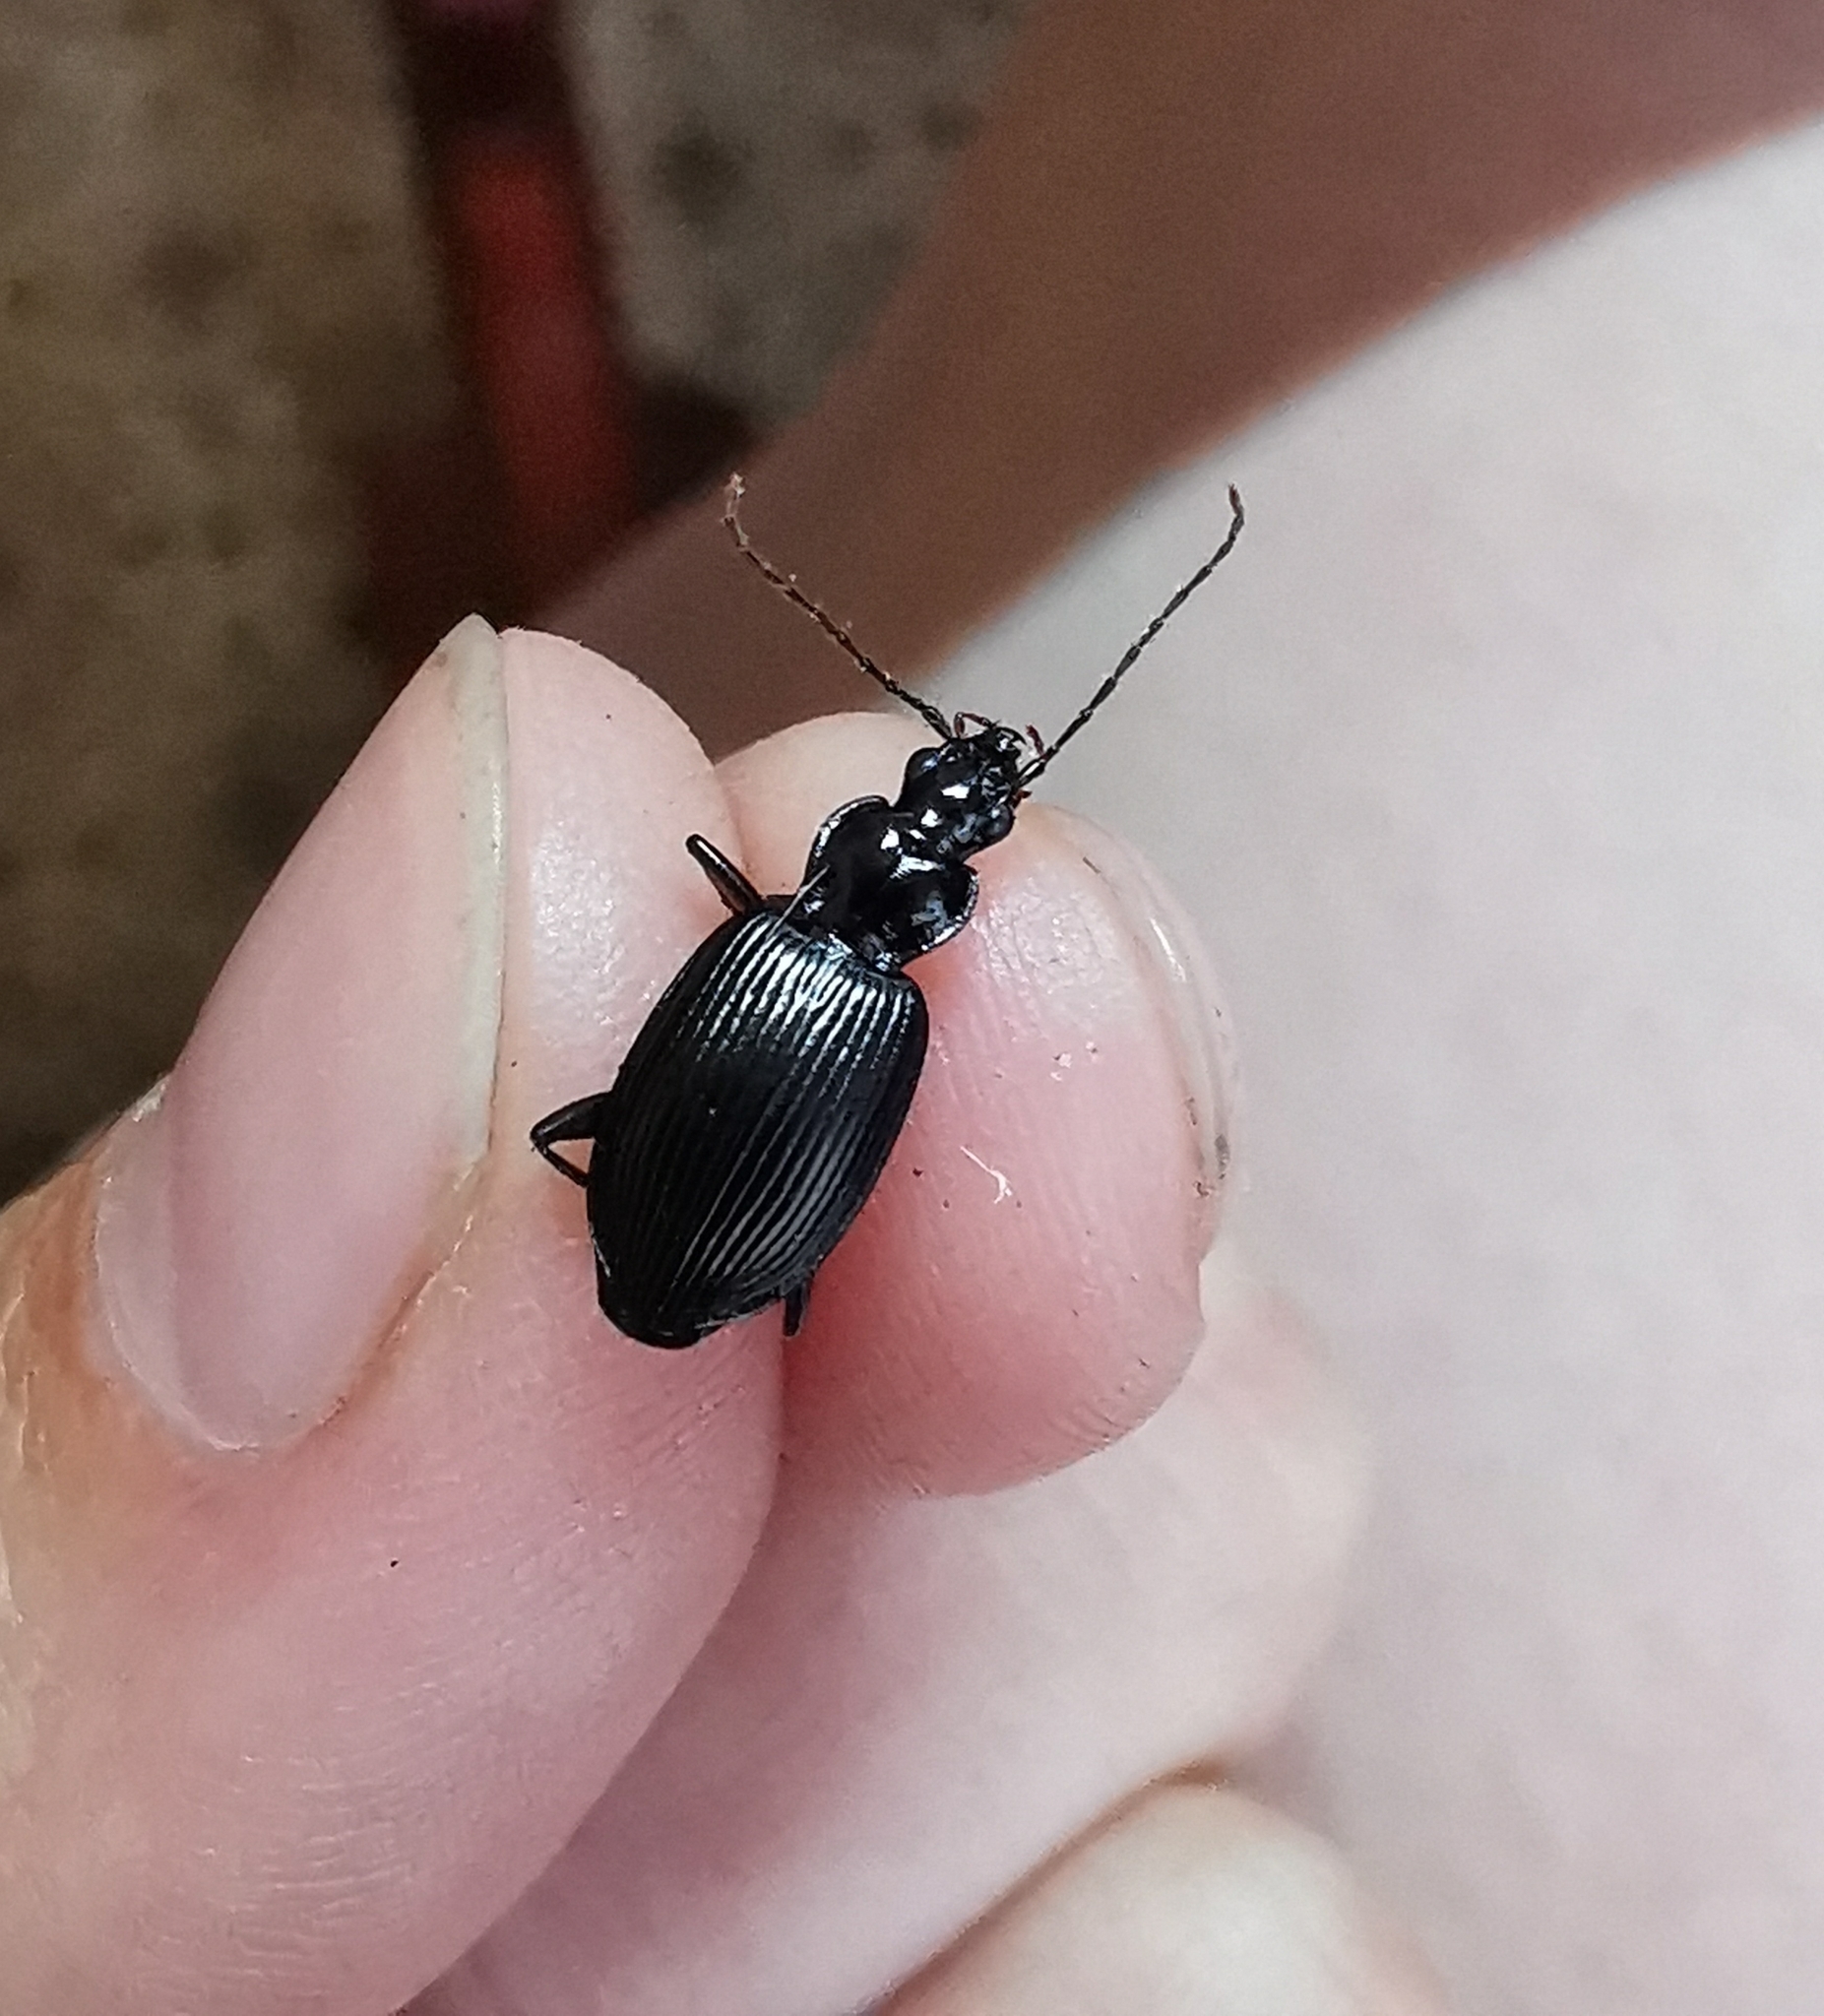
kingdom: Animalia
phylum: Arthropoda
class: Insecta
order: Coleoptera
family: Carabidae
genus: Platynus
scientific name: Platynus assimilis
